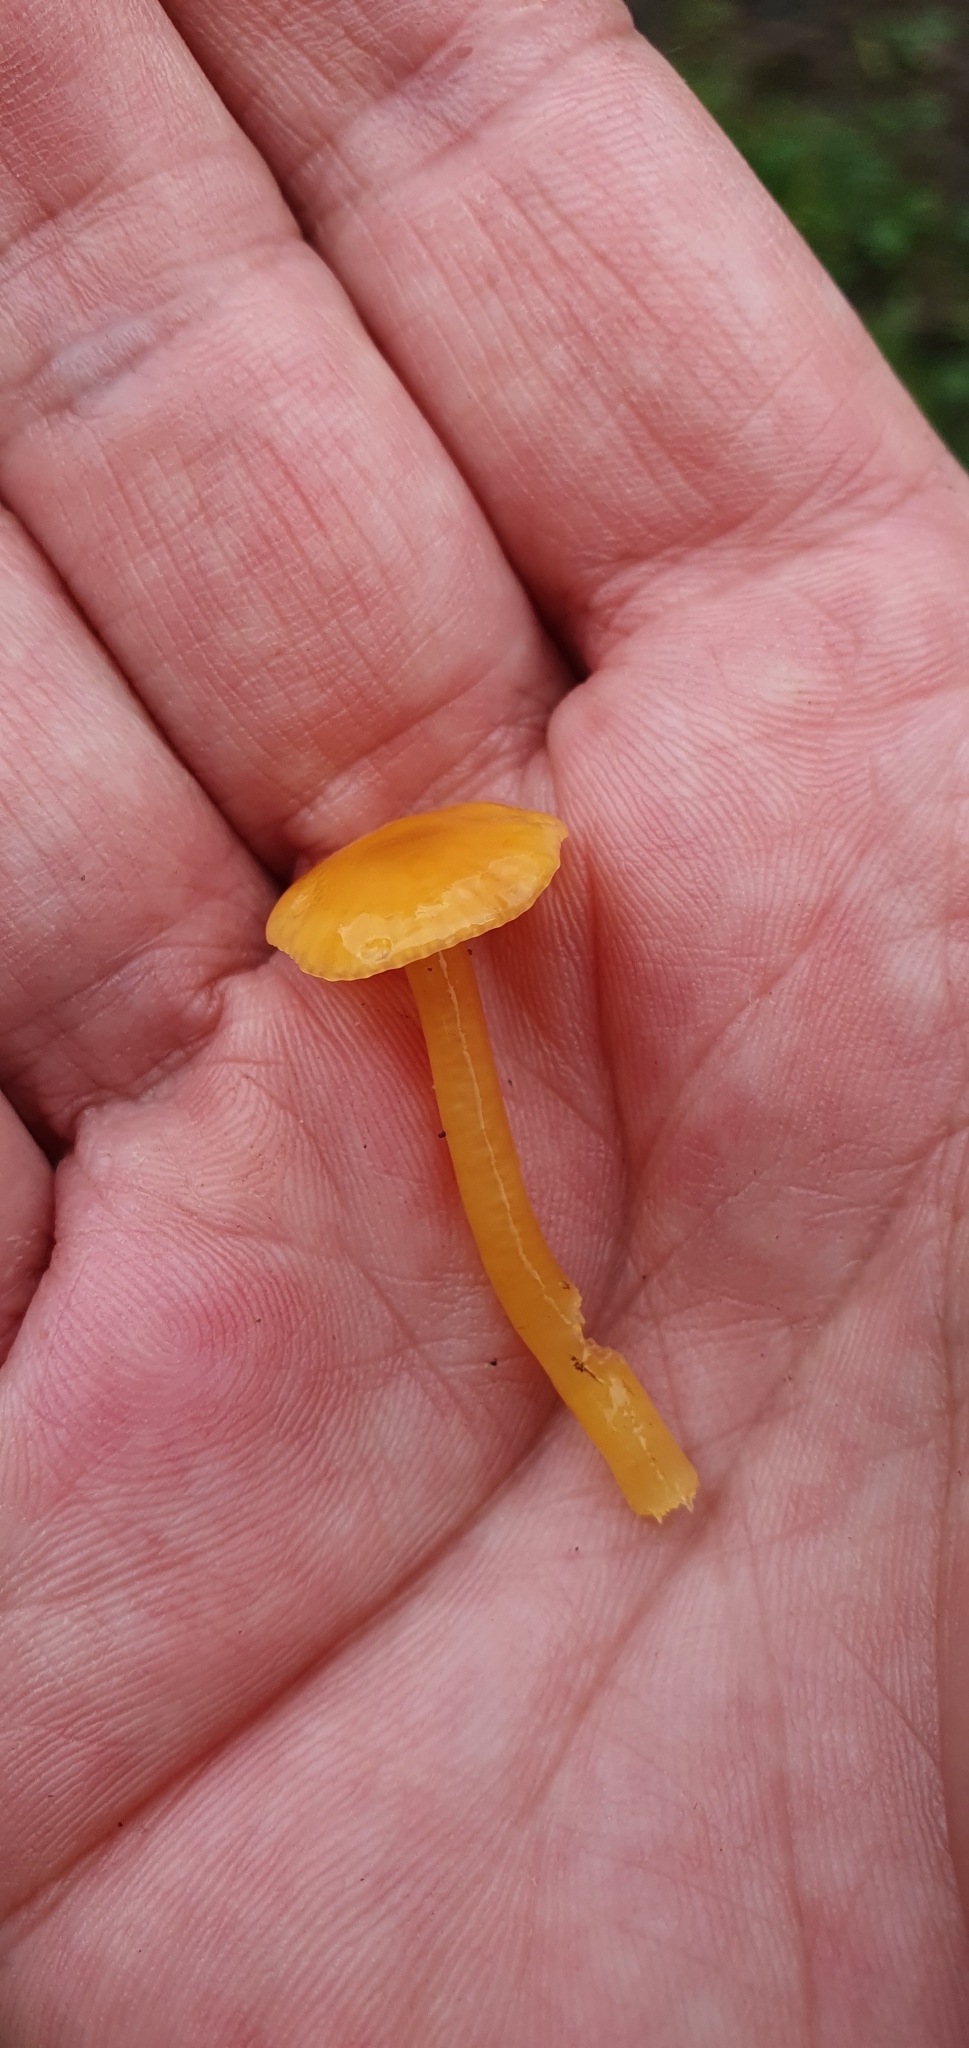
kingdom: Fungi
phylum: Basidiomycota
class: Agaricomycetes
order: Agaricales
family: Hygrophoraceae
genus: Hygrocybe
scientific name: Hygrocybe glutinipes
